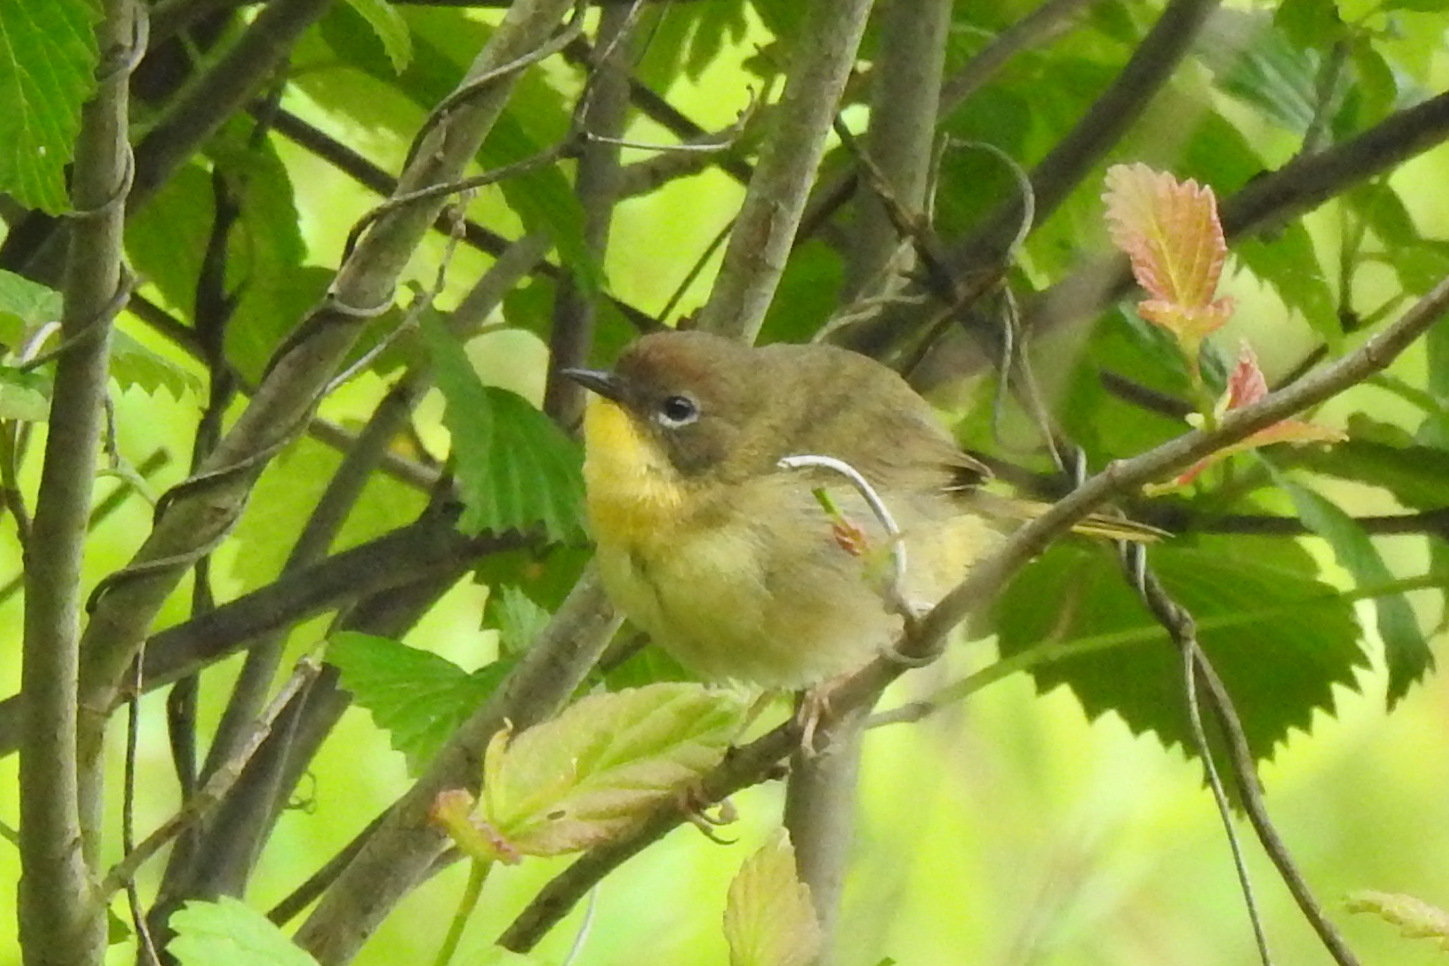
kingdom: Animalia
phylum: Chordata
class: Aves
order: Passeriformes
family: Parulidae
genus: Geothlypis
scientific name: Geothlypis trichas
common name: Common yellowthroat
